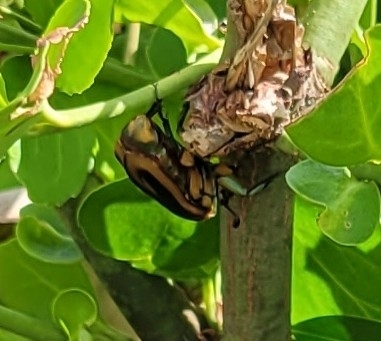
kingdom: Animalia
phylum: Arthropoda
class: Insecta
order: Coleoptera
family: Scarabaeidae
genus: Cotinis
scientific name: Cotinis nitida
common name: Common green june beetle
